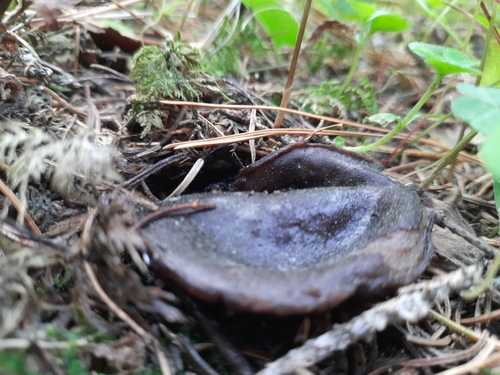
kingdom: Fungi
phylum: Ascomycota
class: Pezizomycetes
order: Pezizales
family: Sarcosomataceae
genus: Sarcosoma
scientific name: Sarcosoma globosum
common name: Charred-pancake cup
